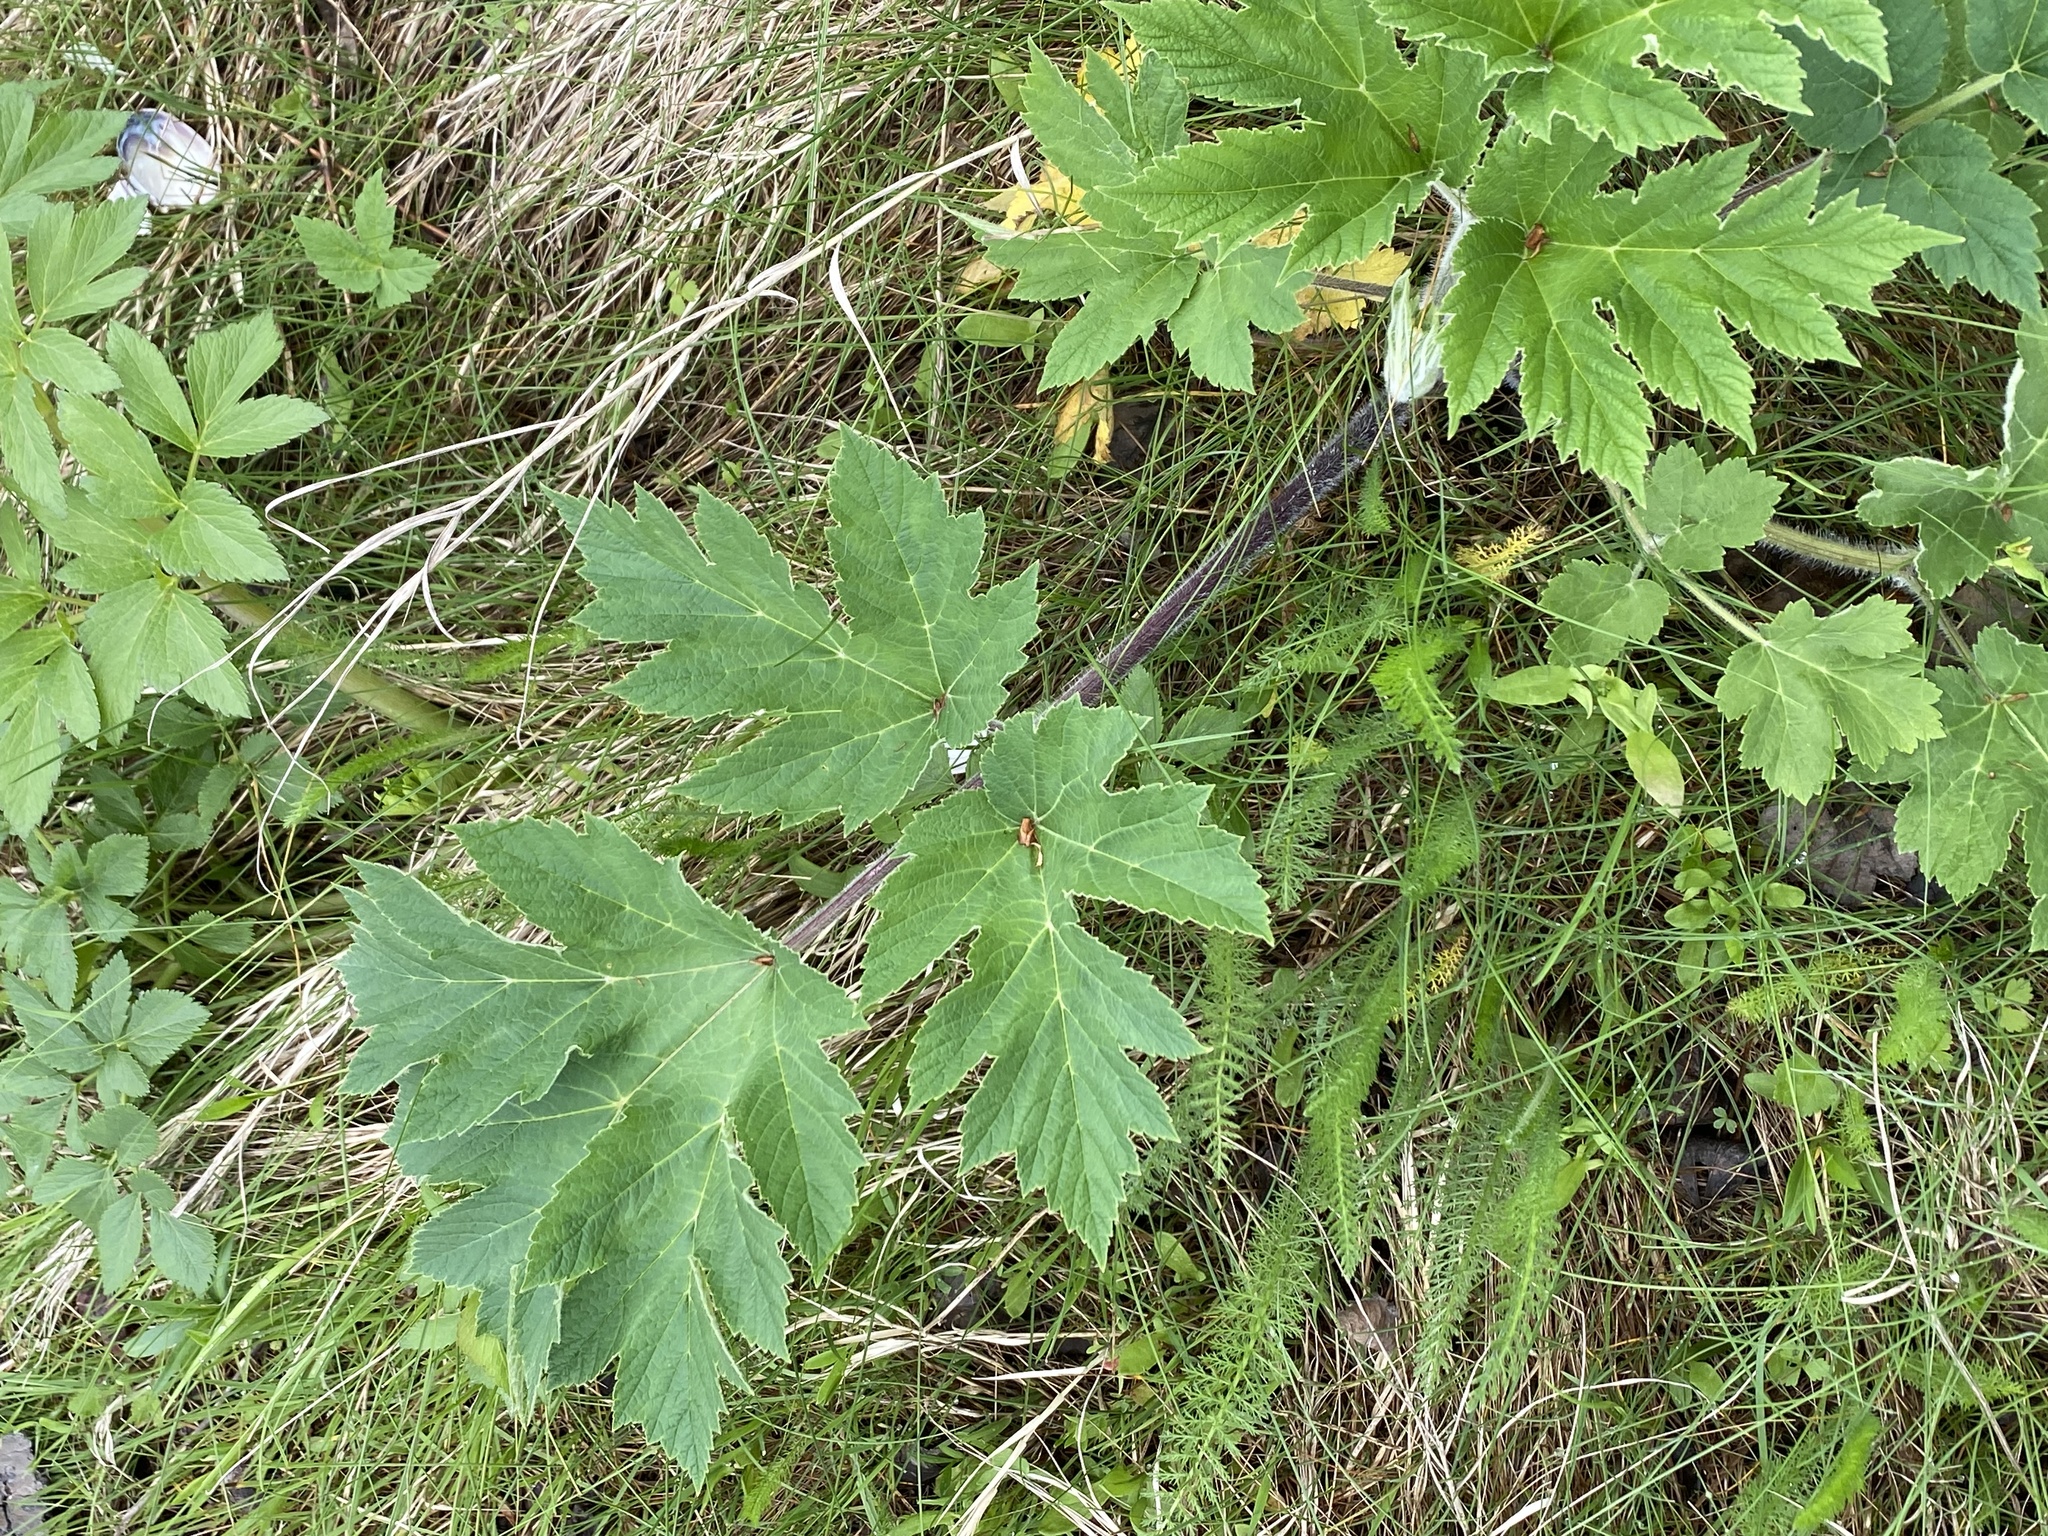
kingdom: Plantae
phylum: Tracheophyta
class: Magnoliopsida
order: Apiales
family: Apiaceae
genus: Heracleum
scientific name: Heracleum maximum
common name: American cow parsnip
